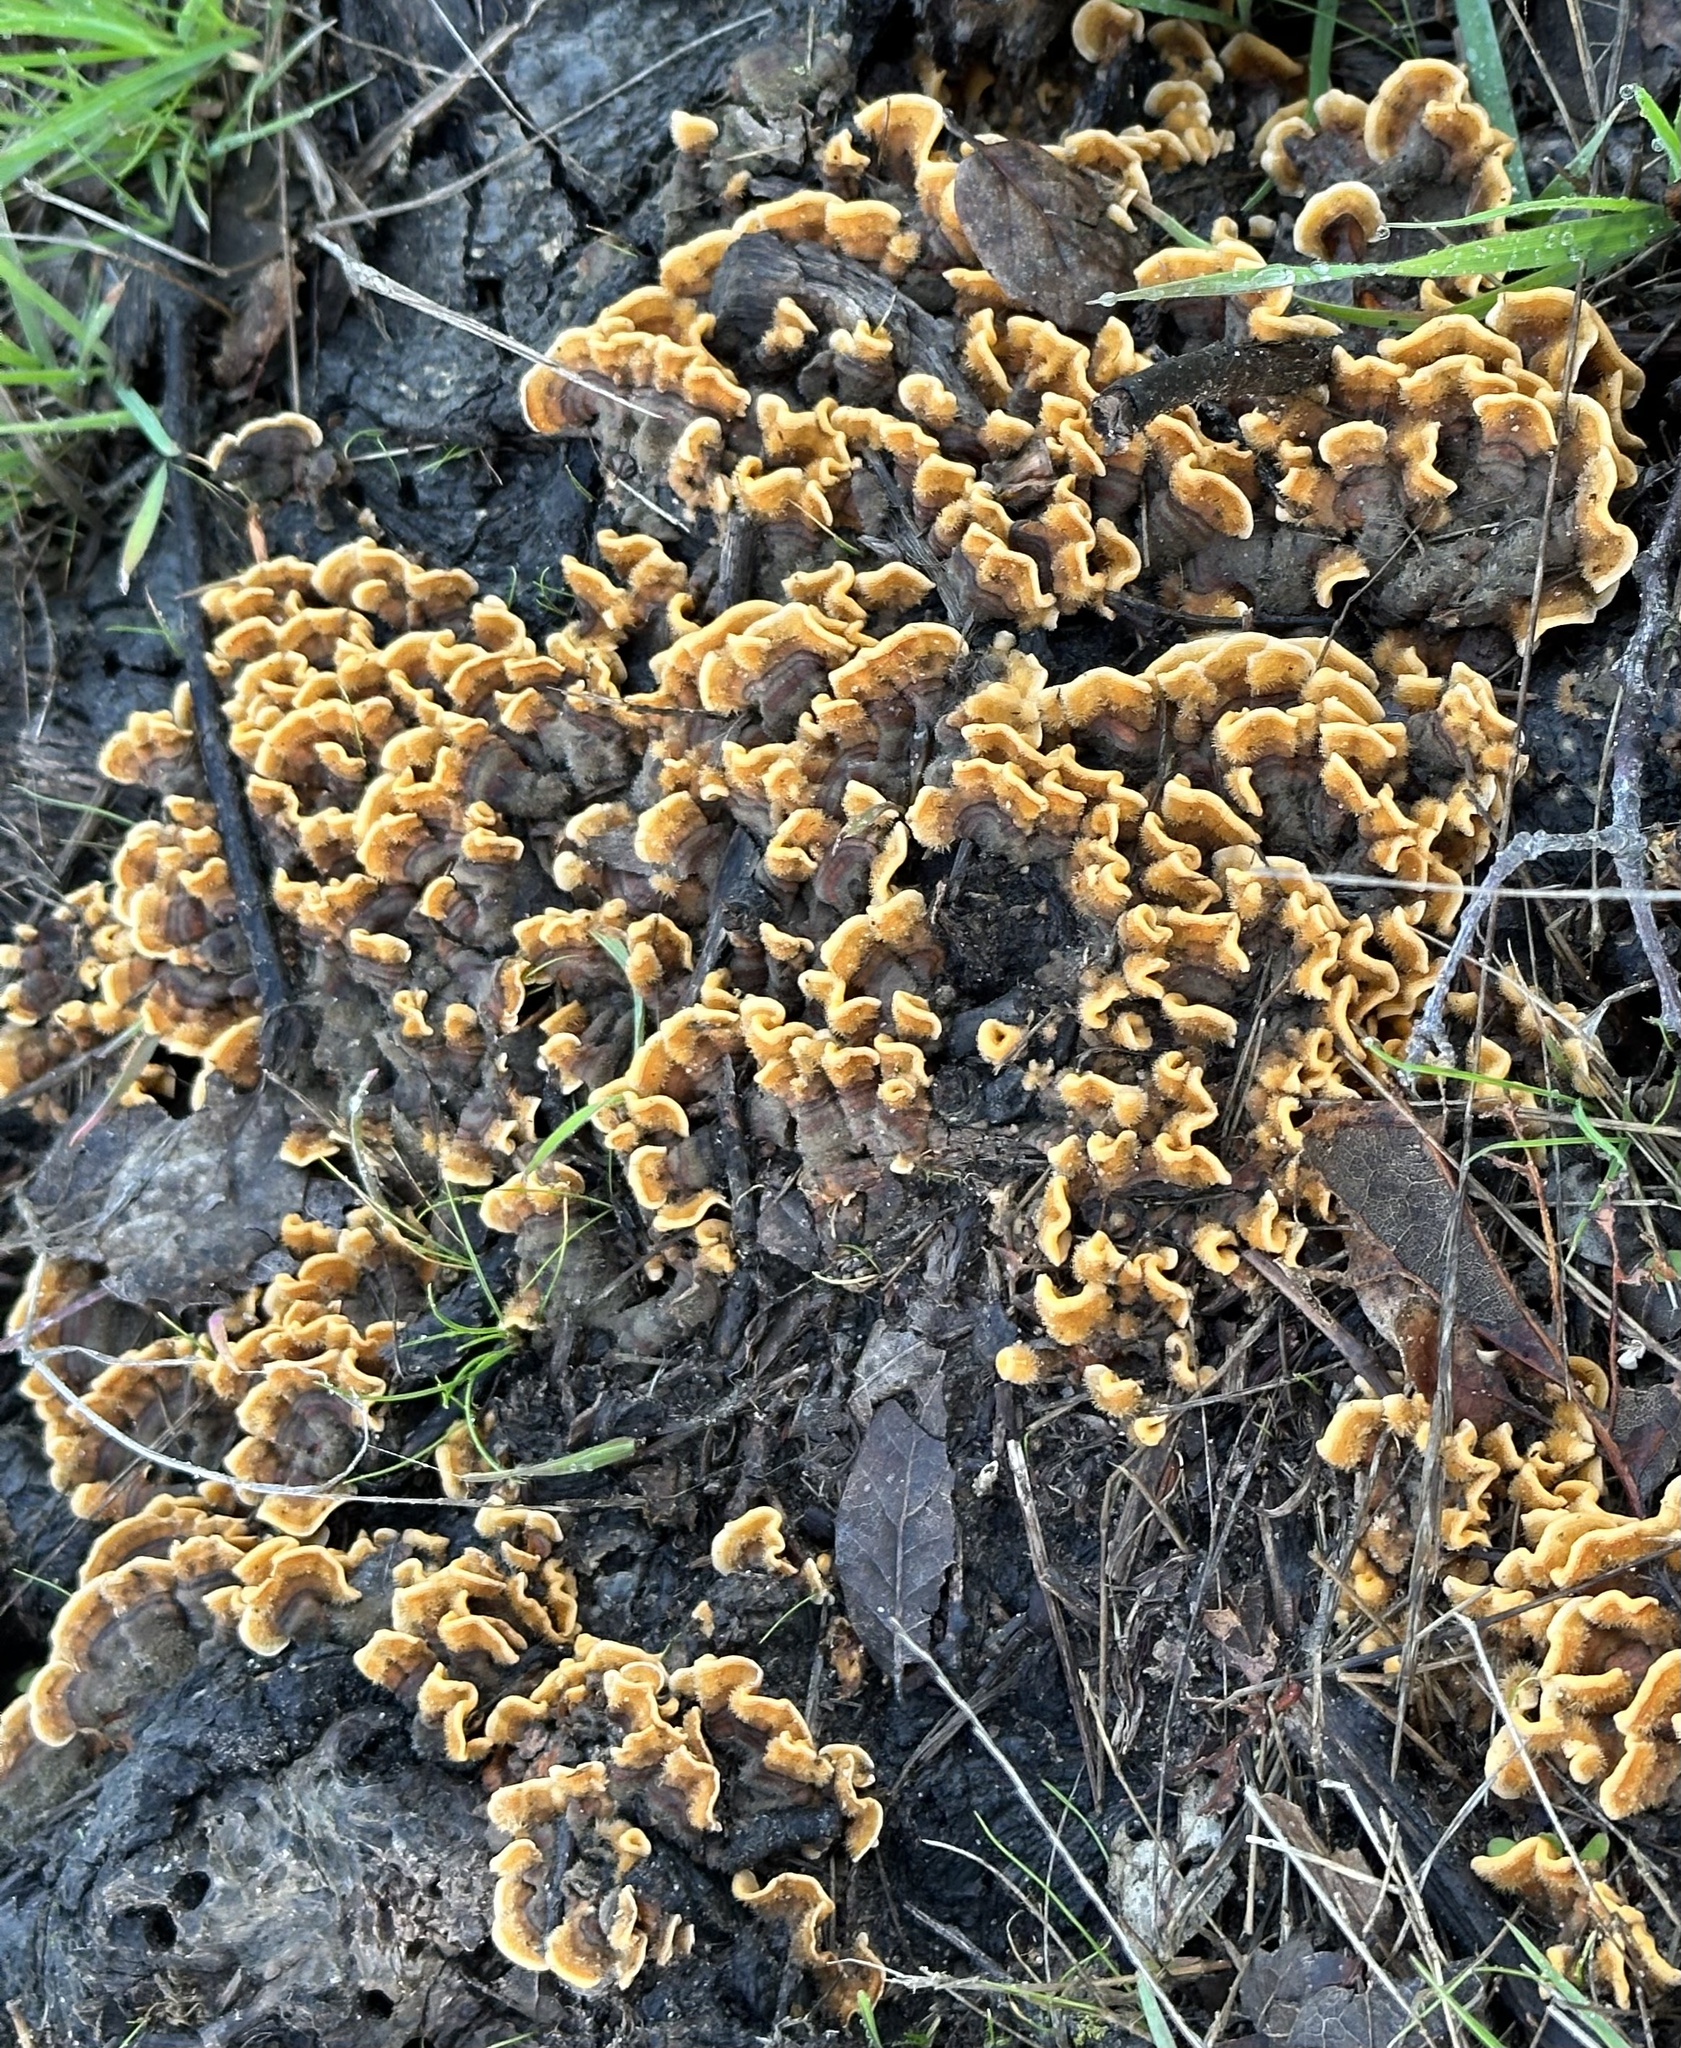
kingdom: Fungi
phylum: Basidiomycota
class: Agaricomycetes
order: Russulales
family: Stereaceae
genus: Stereum
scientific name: Stereum hirsutum
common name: Hairy curtain crust
